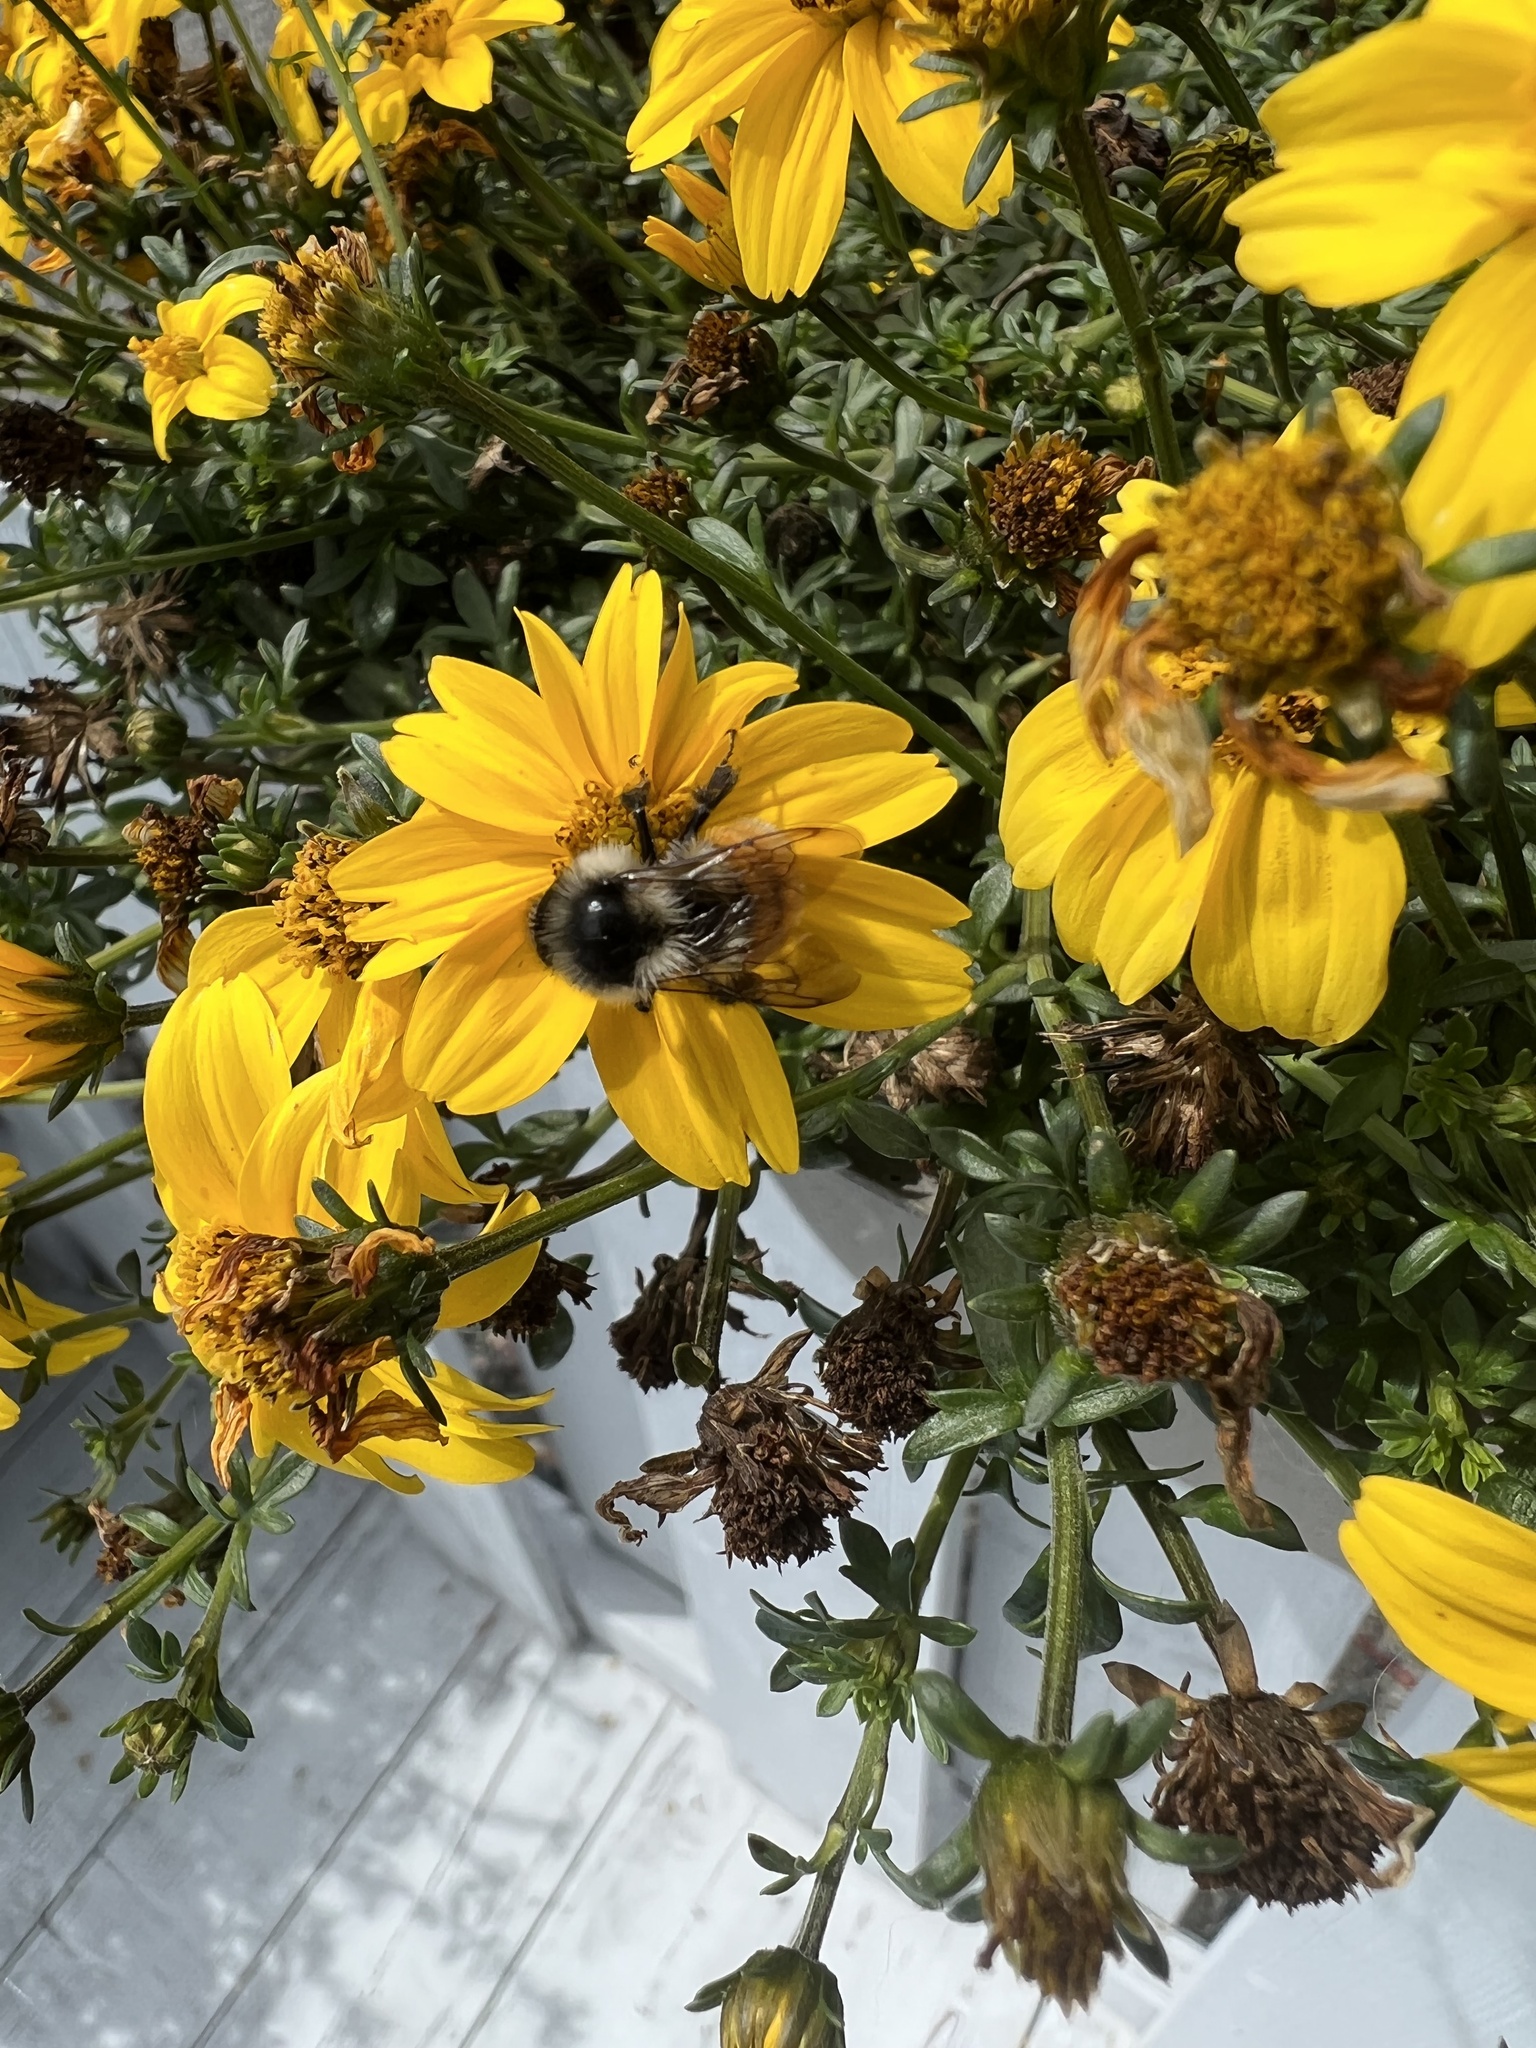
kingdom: Animalia
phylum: Arthropoda
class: Insecta
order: Hymenoptera
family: Apidae
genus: Bombus
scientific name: Bombus ternarius
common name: Tri-colored bumble bee
